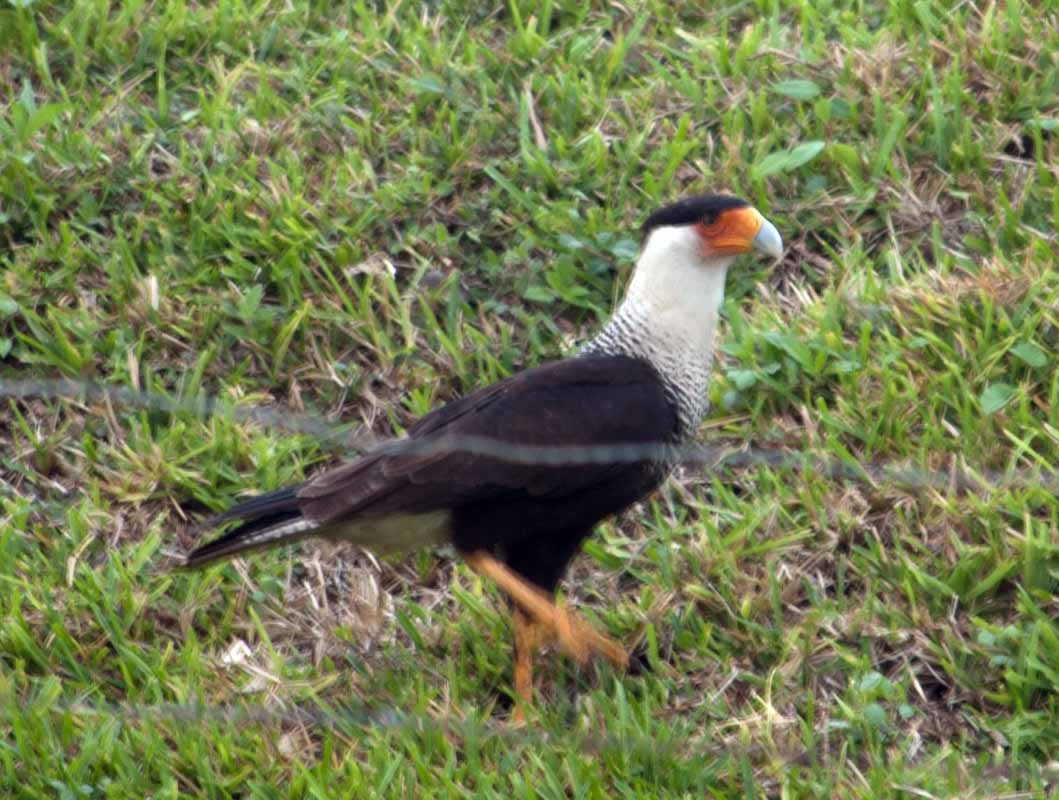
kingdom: Animalia
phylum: Chordata
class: Aves
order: Falconiformes
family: Falconidae
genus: Caracara
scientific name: Caracara plancus
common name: Southern caracara
